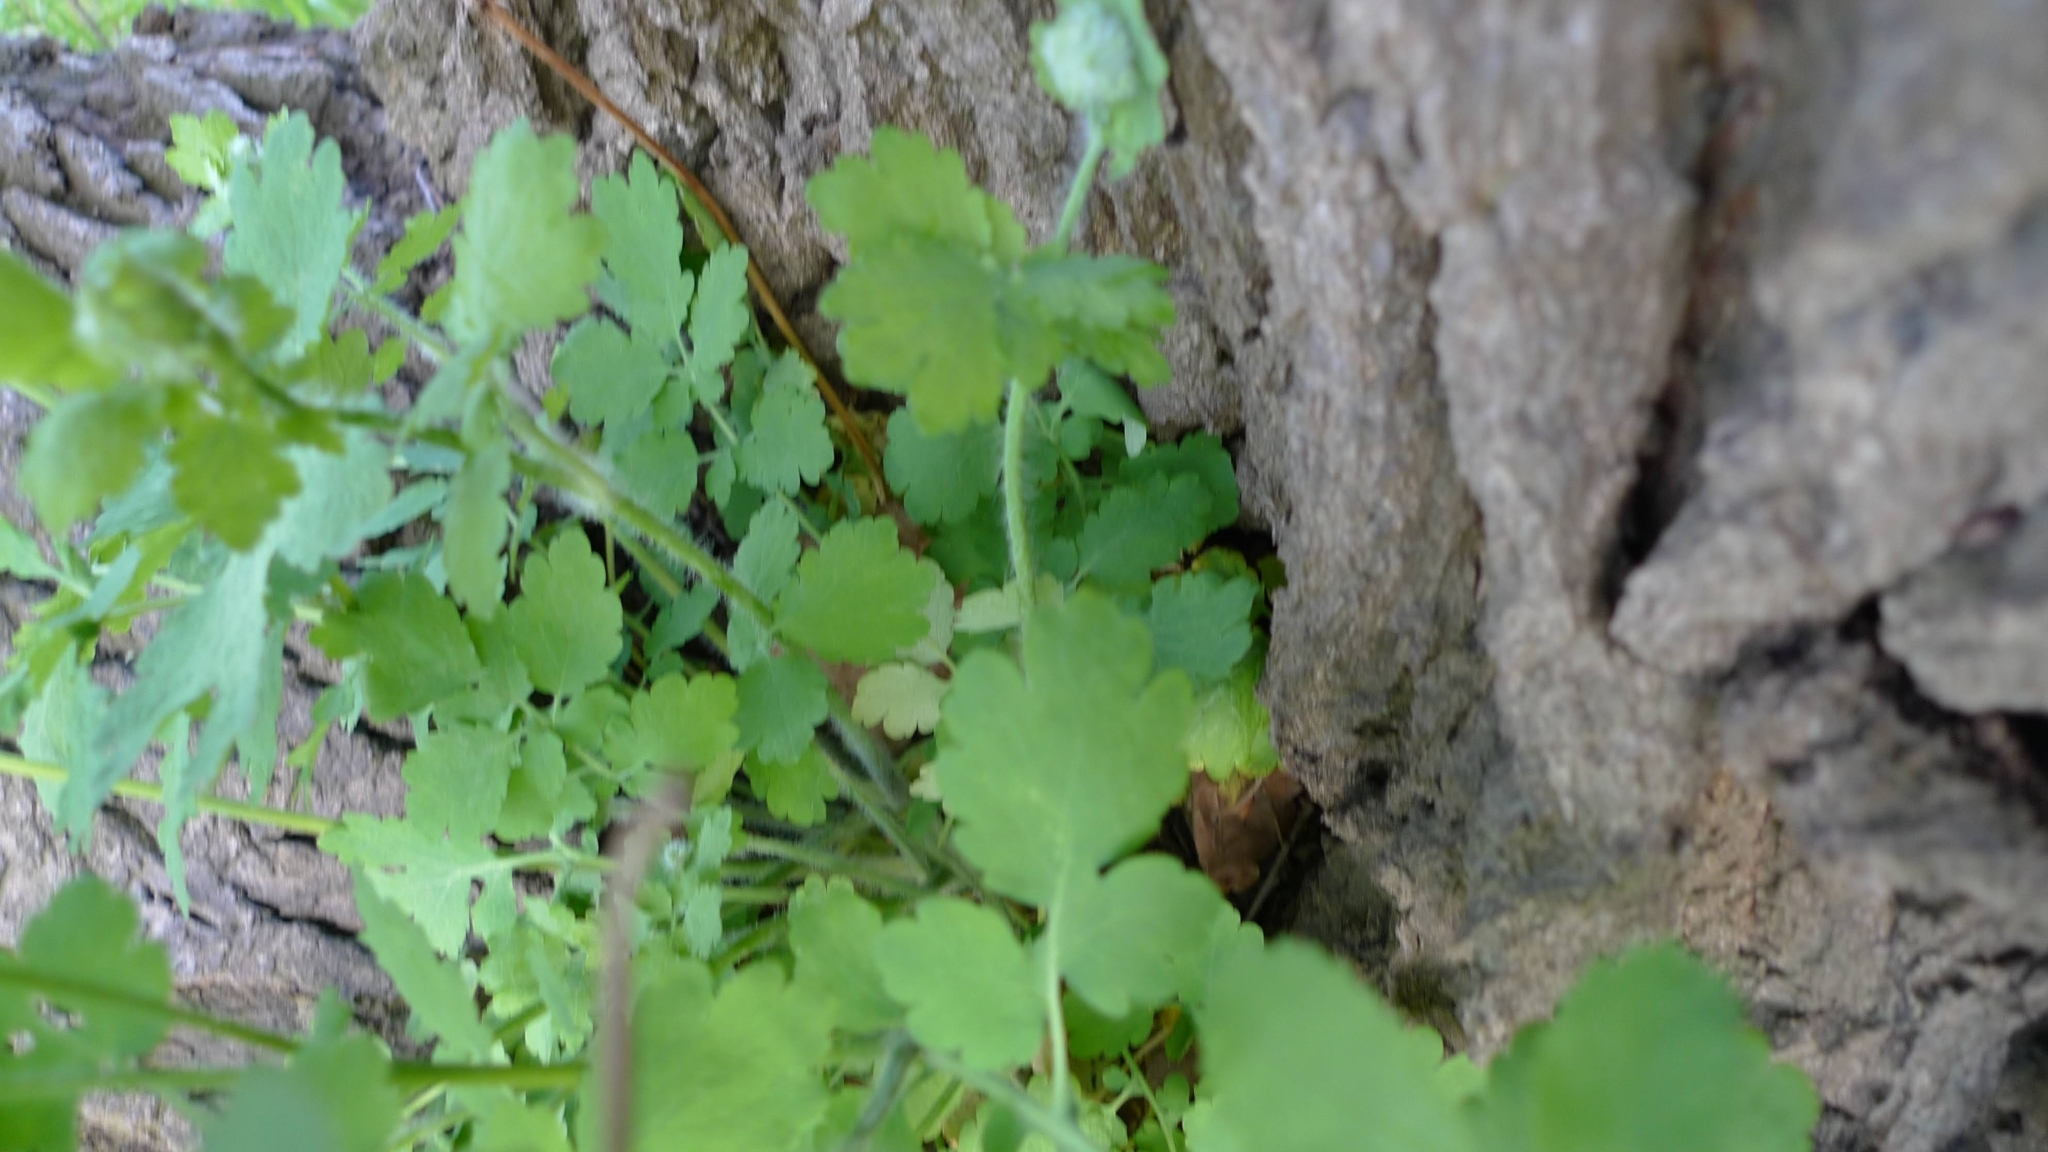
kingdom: Plantae
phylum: Tracheophyta
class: Magnoliopsida
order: Ranunculales
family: Papaveraceae
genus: Chelidonium
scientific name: Chelidonium majus
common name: Greater celandine
